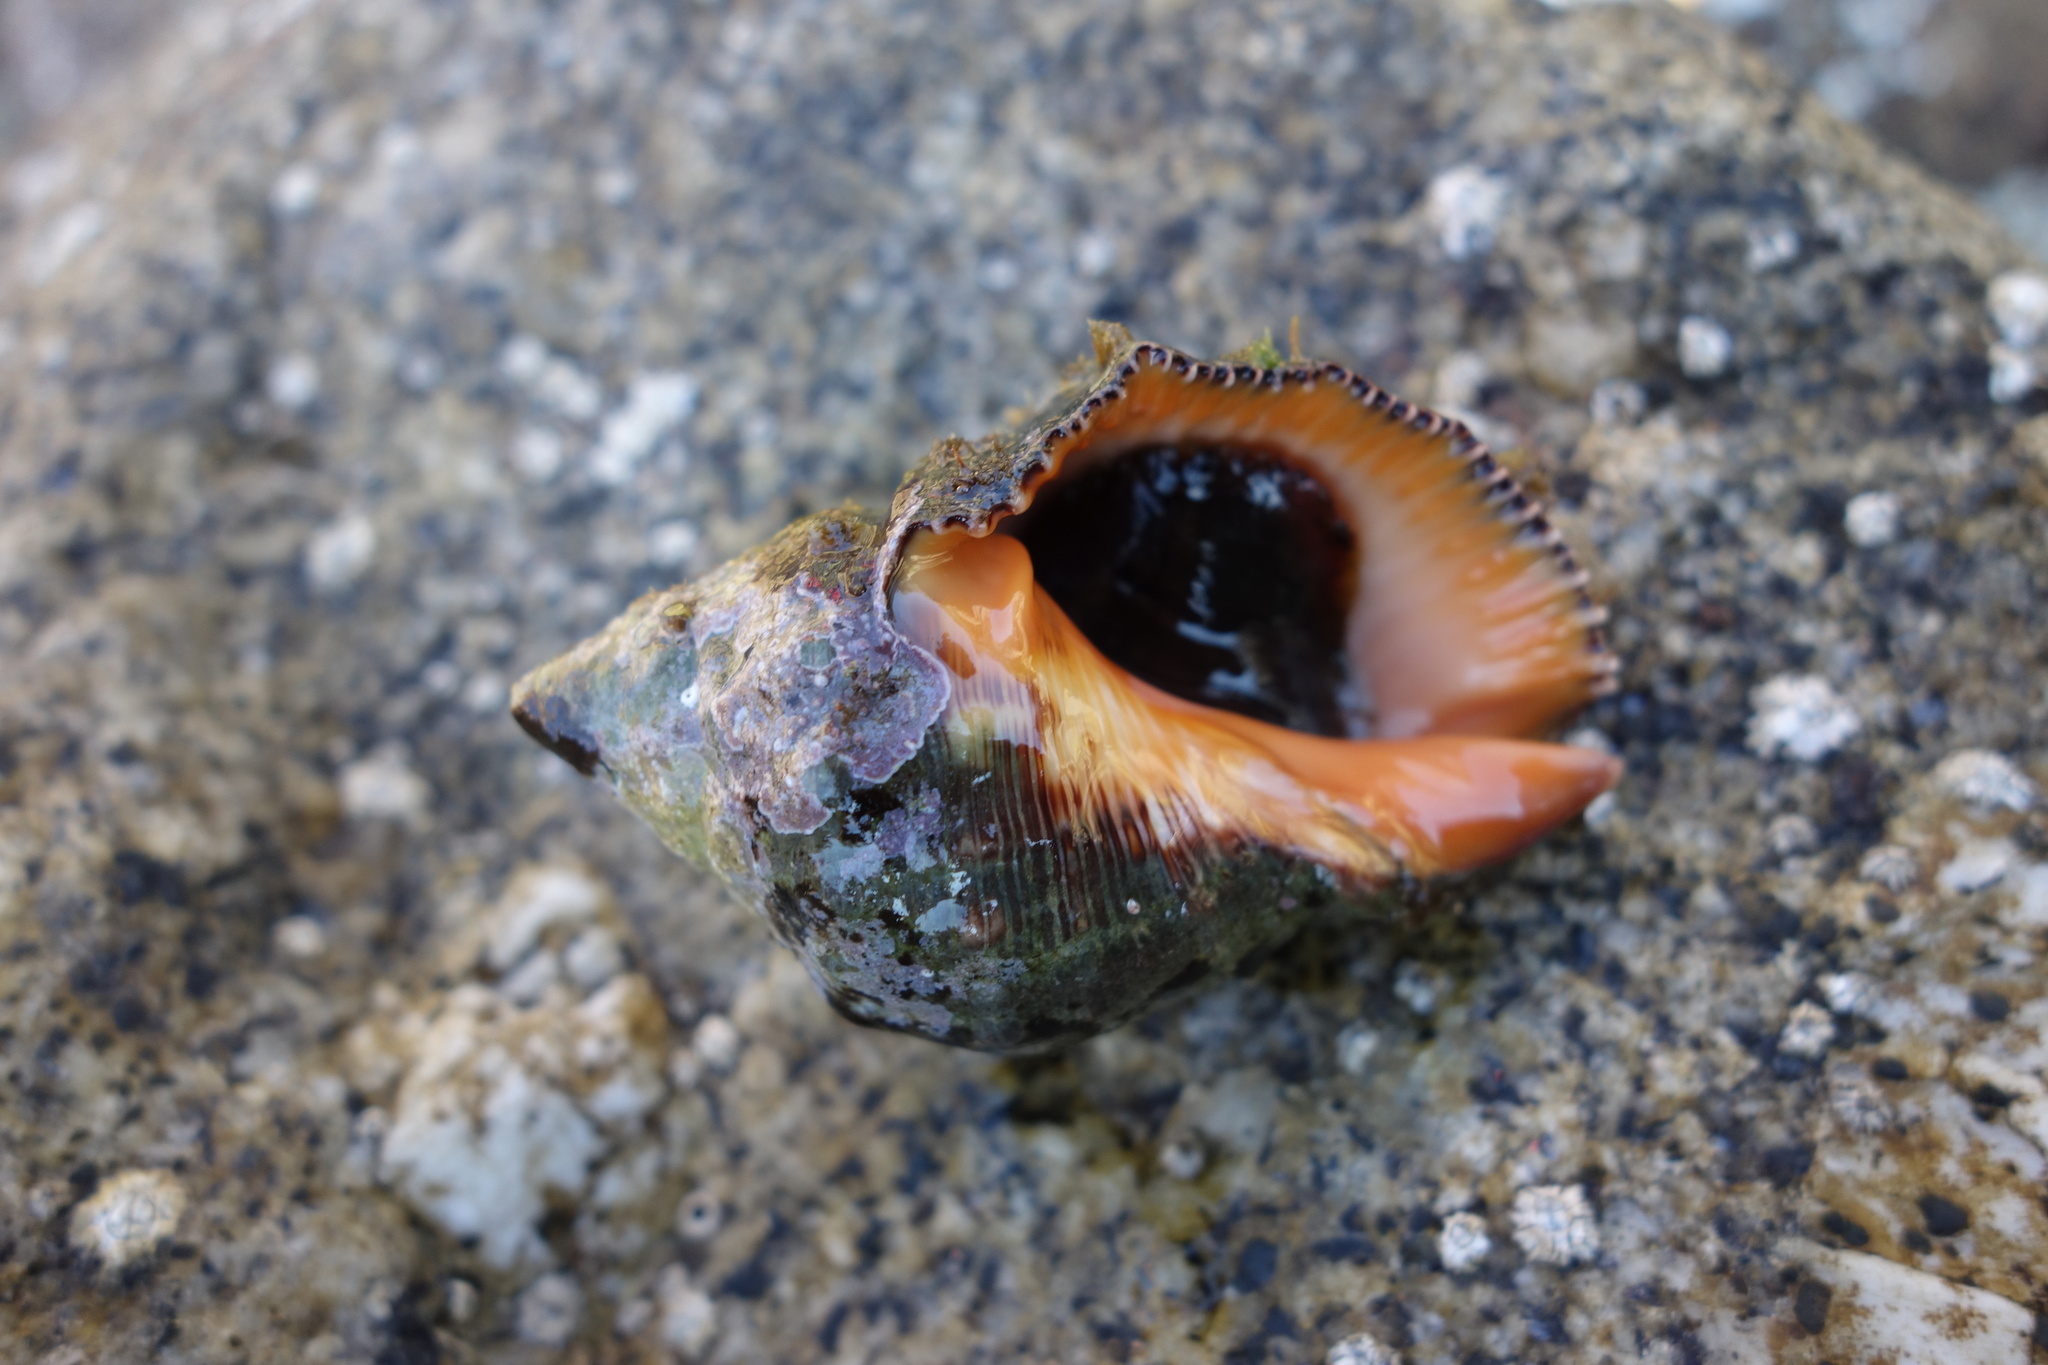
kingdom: Animalia
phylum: Mollusca
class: Gastropoda
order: Neogastropoda
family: Muricidae
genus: Stramonita
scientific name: Stramonita haemastoma
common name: Florida dog winkle
